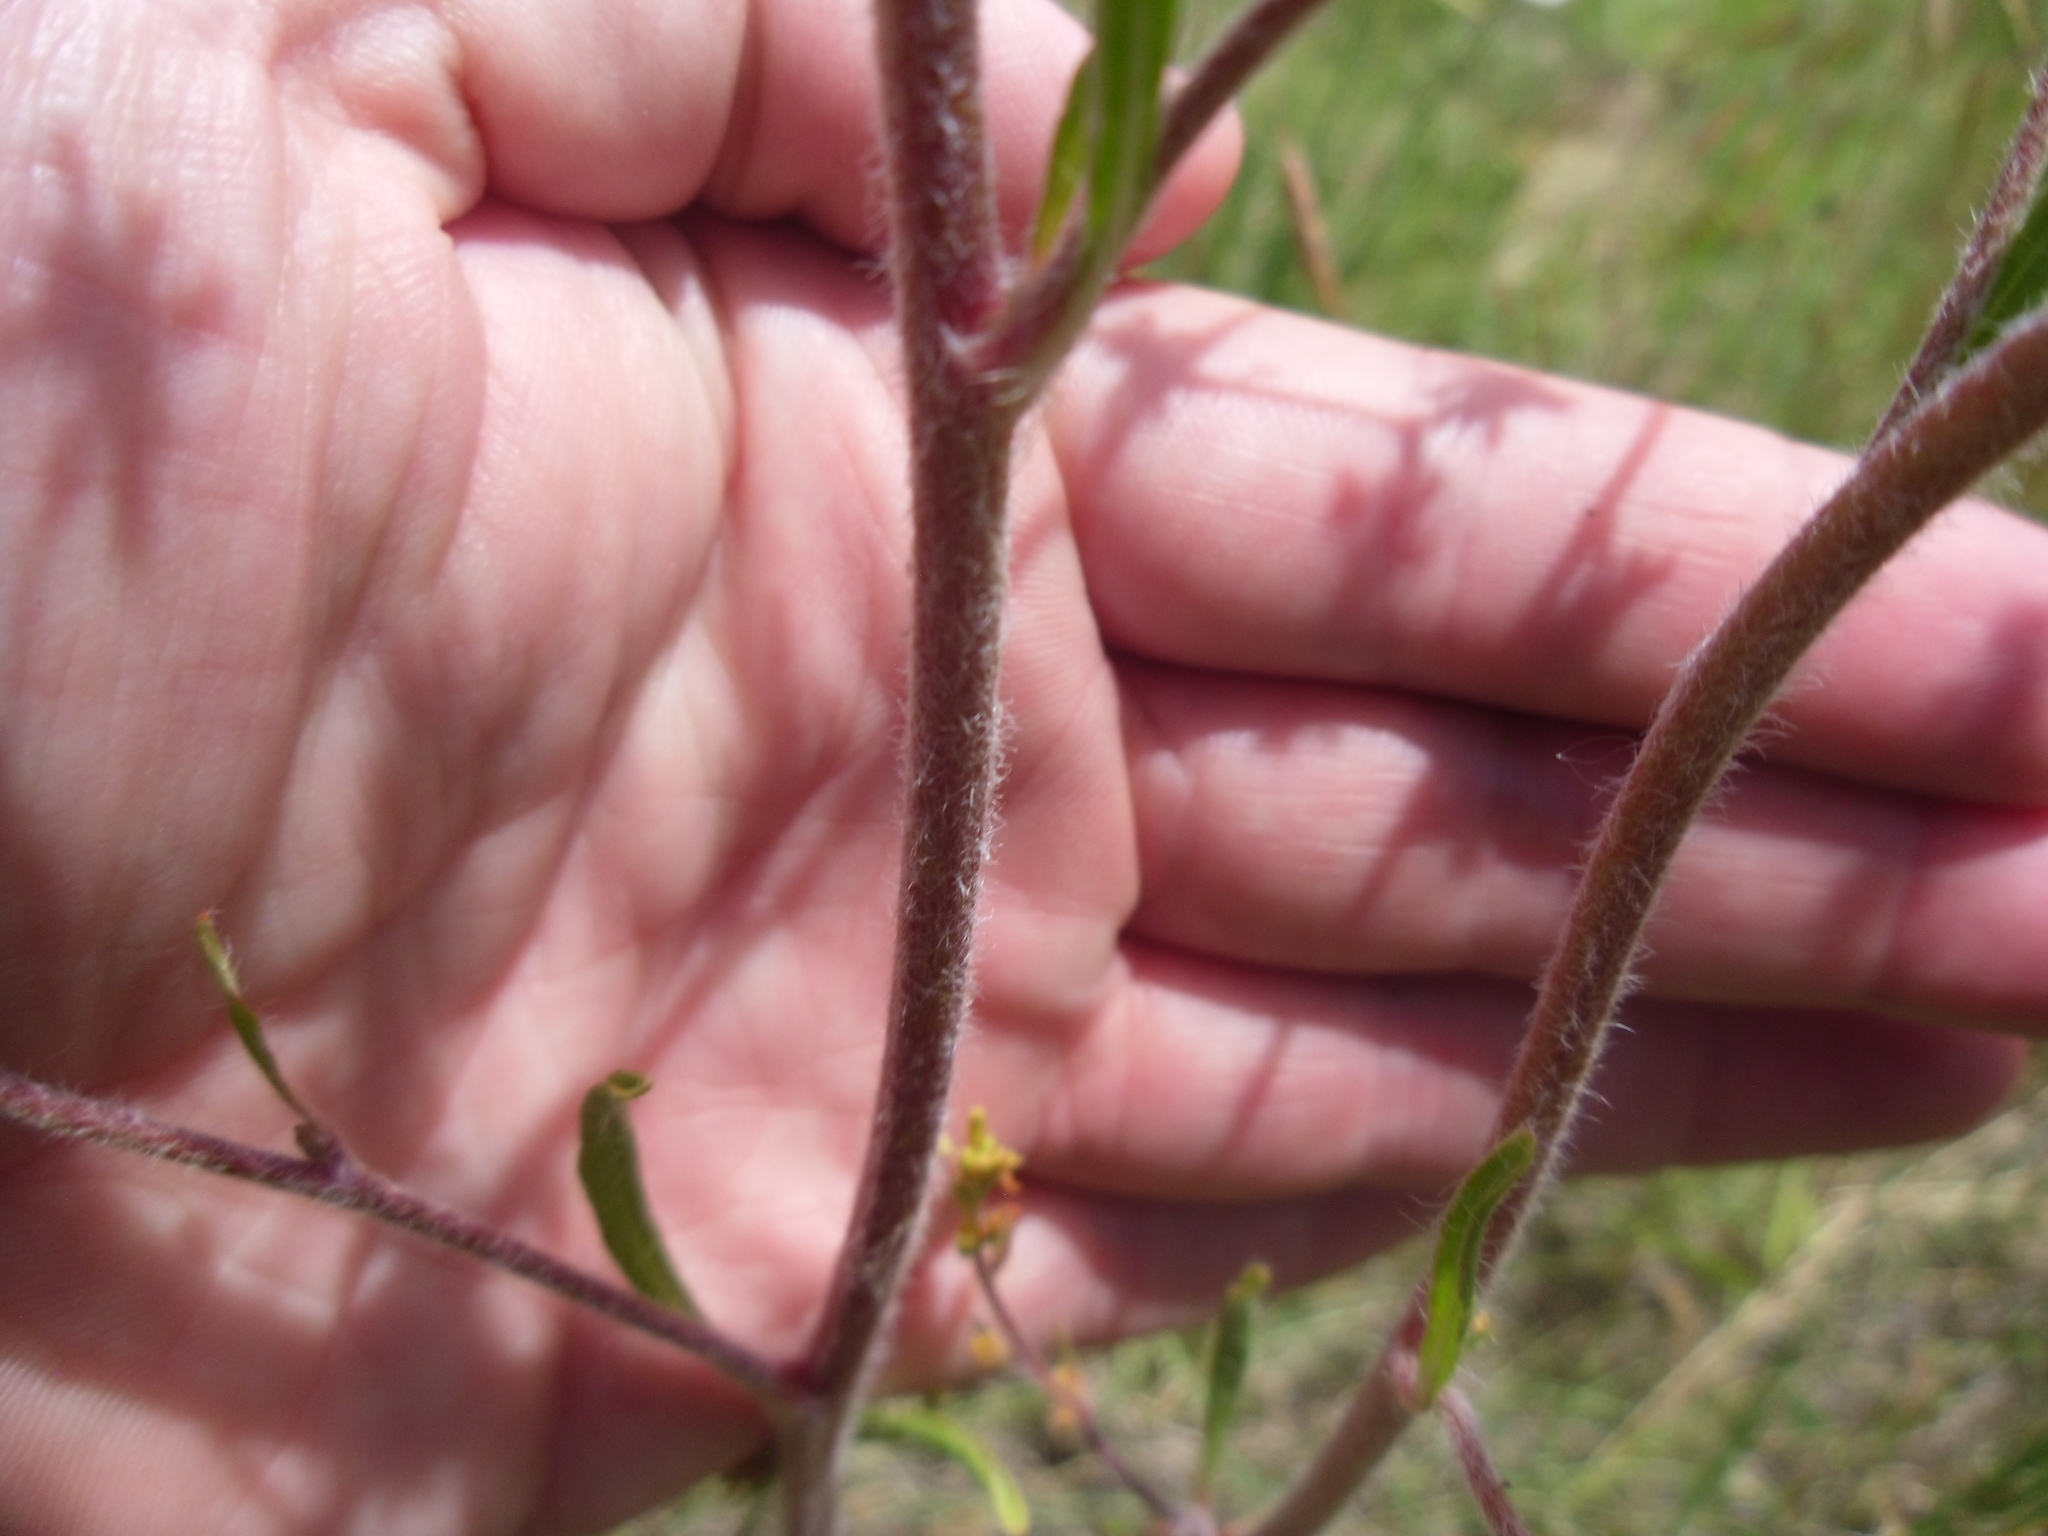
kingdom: Plantae
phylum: Tracheophyta
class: Magnoliopsida
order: Caryophyllales
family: Polygonaceae
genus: Eriogonum
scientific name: Eriogonum alatum
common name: Winged eriogonum
